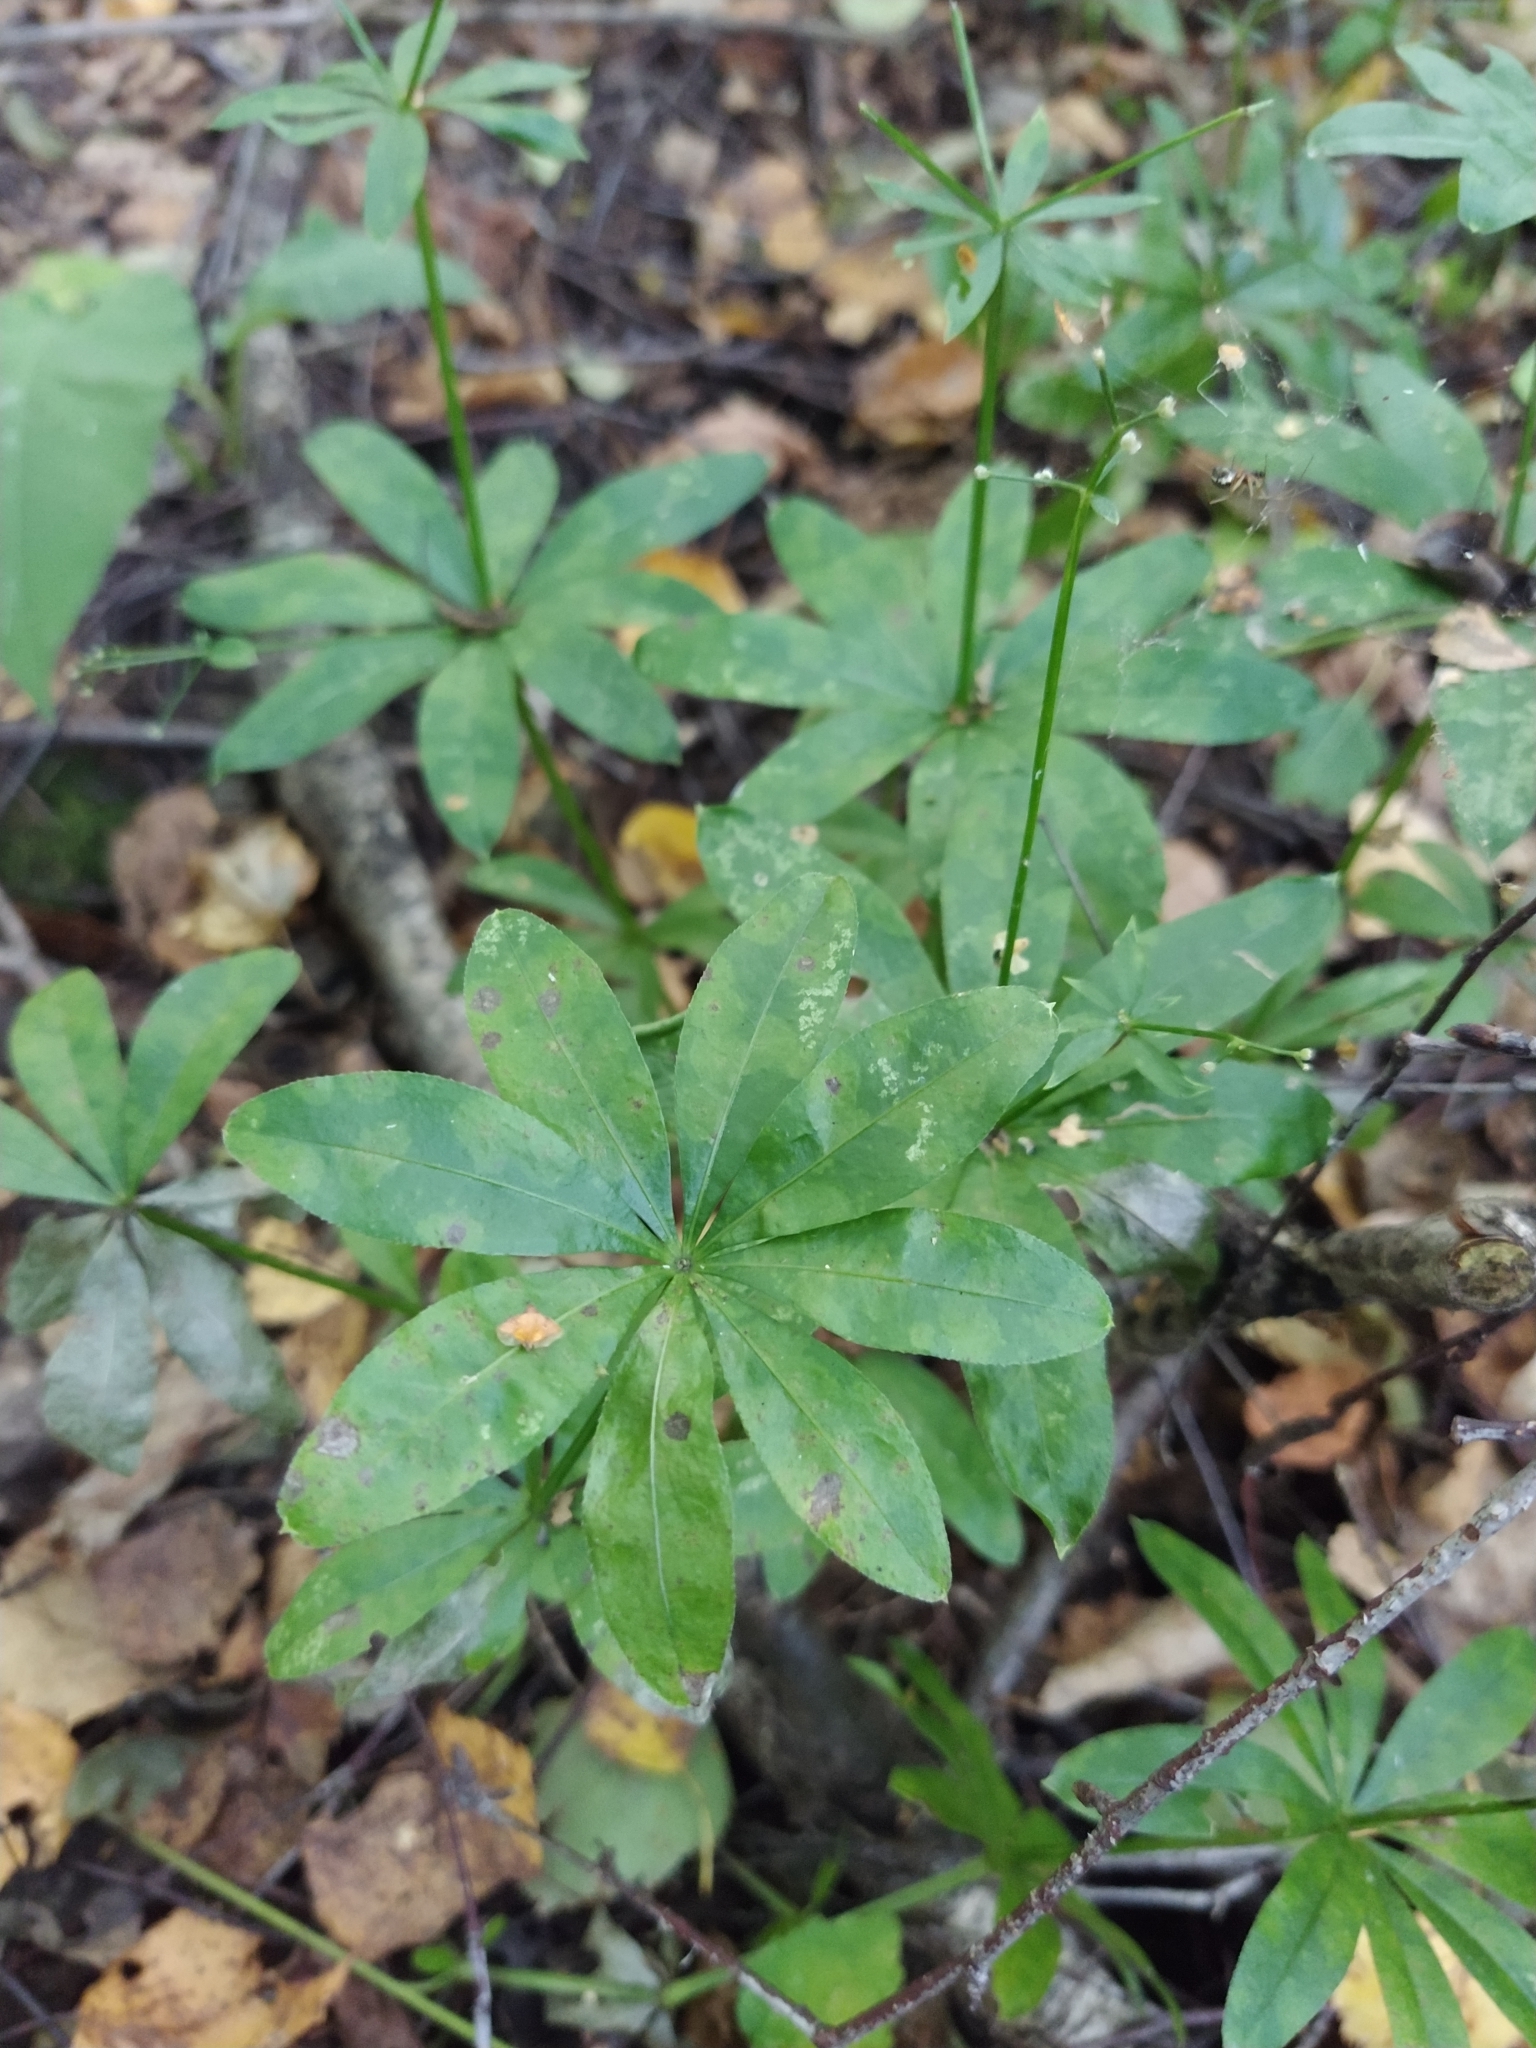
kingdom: Plantae
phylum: Tracheophyta
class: Magnoliopsida
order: Gentianales
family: Rubiaceae
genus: Galium
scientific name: Galium odoratum
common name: Sweet woodruff
